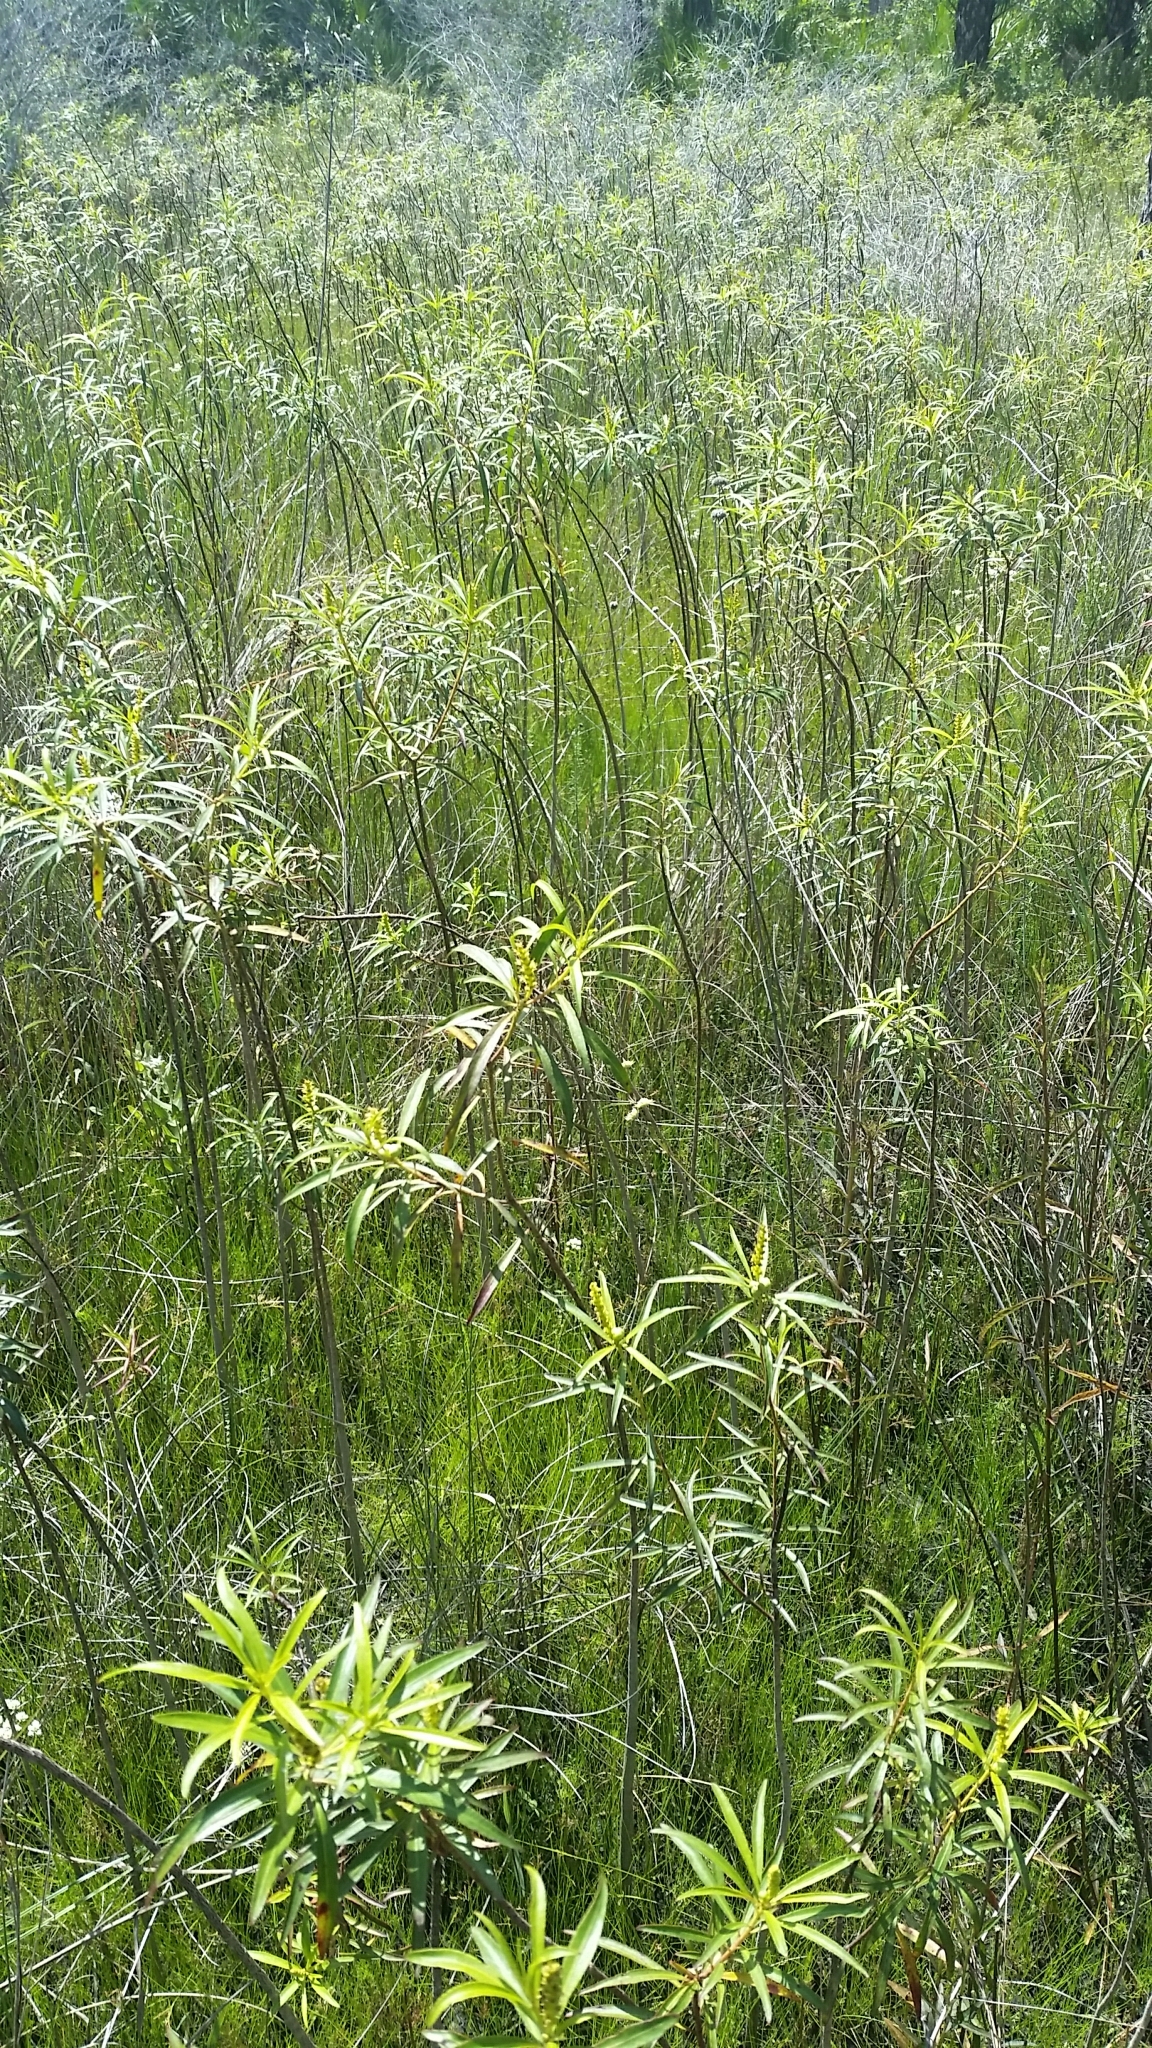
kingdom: Plantae
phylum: Tracheophyta
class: Magnoliopsida
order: Malpighiales
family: Euphorbiaceae
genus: Stillingia
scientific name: Stillingia aquatica
